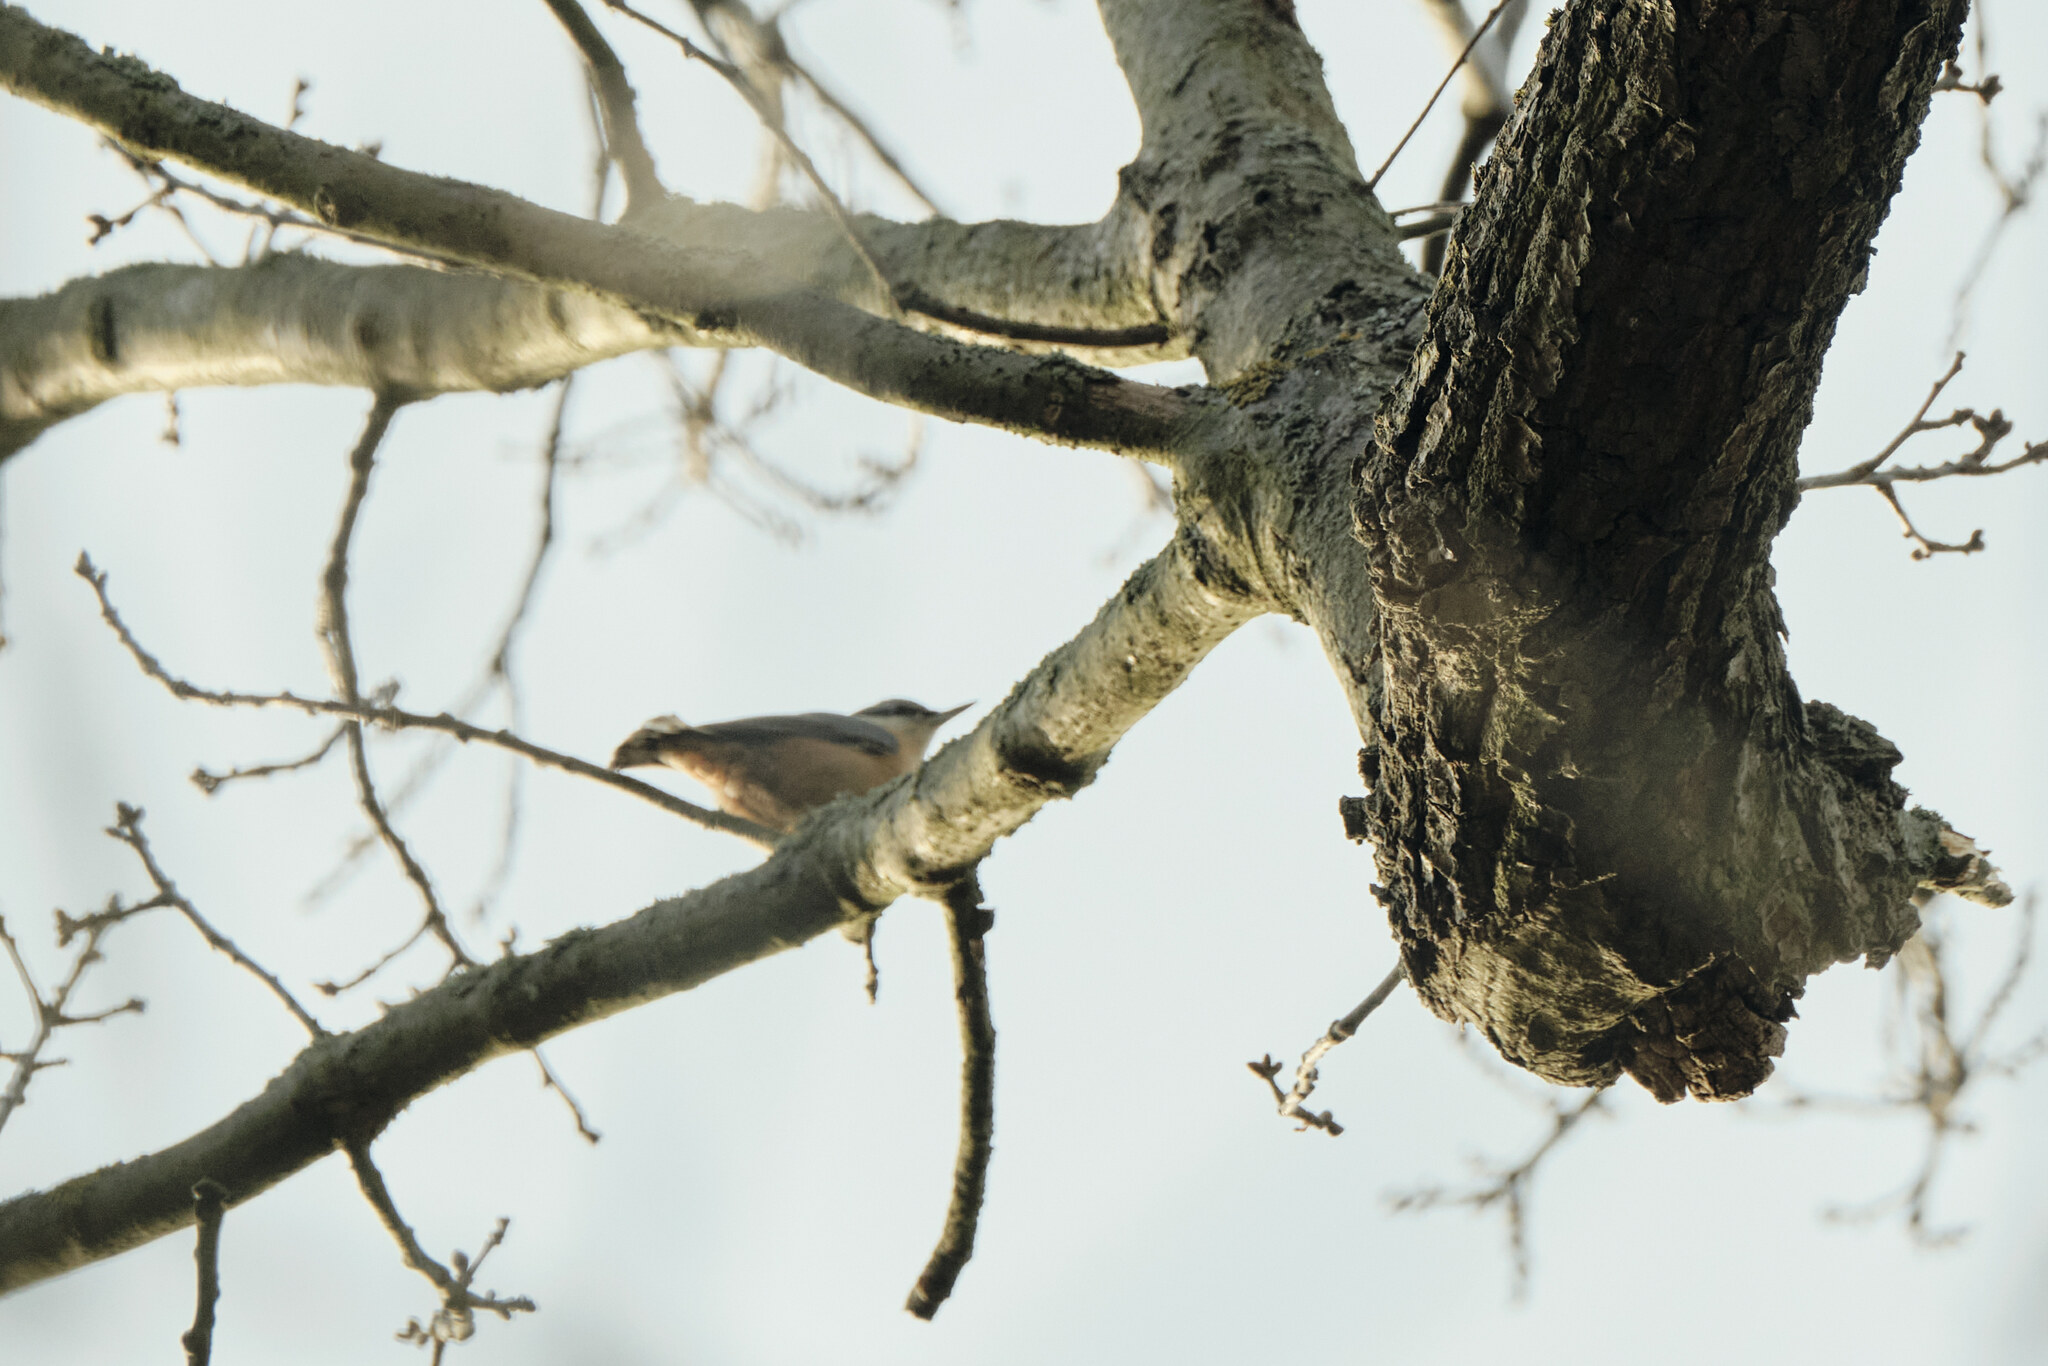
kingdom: Animalia
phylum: Chordata
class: Aves
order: Passeriformes
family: Sittidae
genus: Sitta
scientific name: Sitta europaea
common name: Eurasian nuthatch
